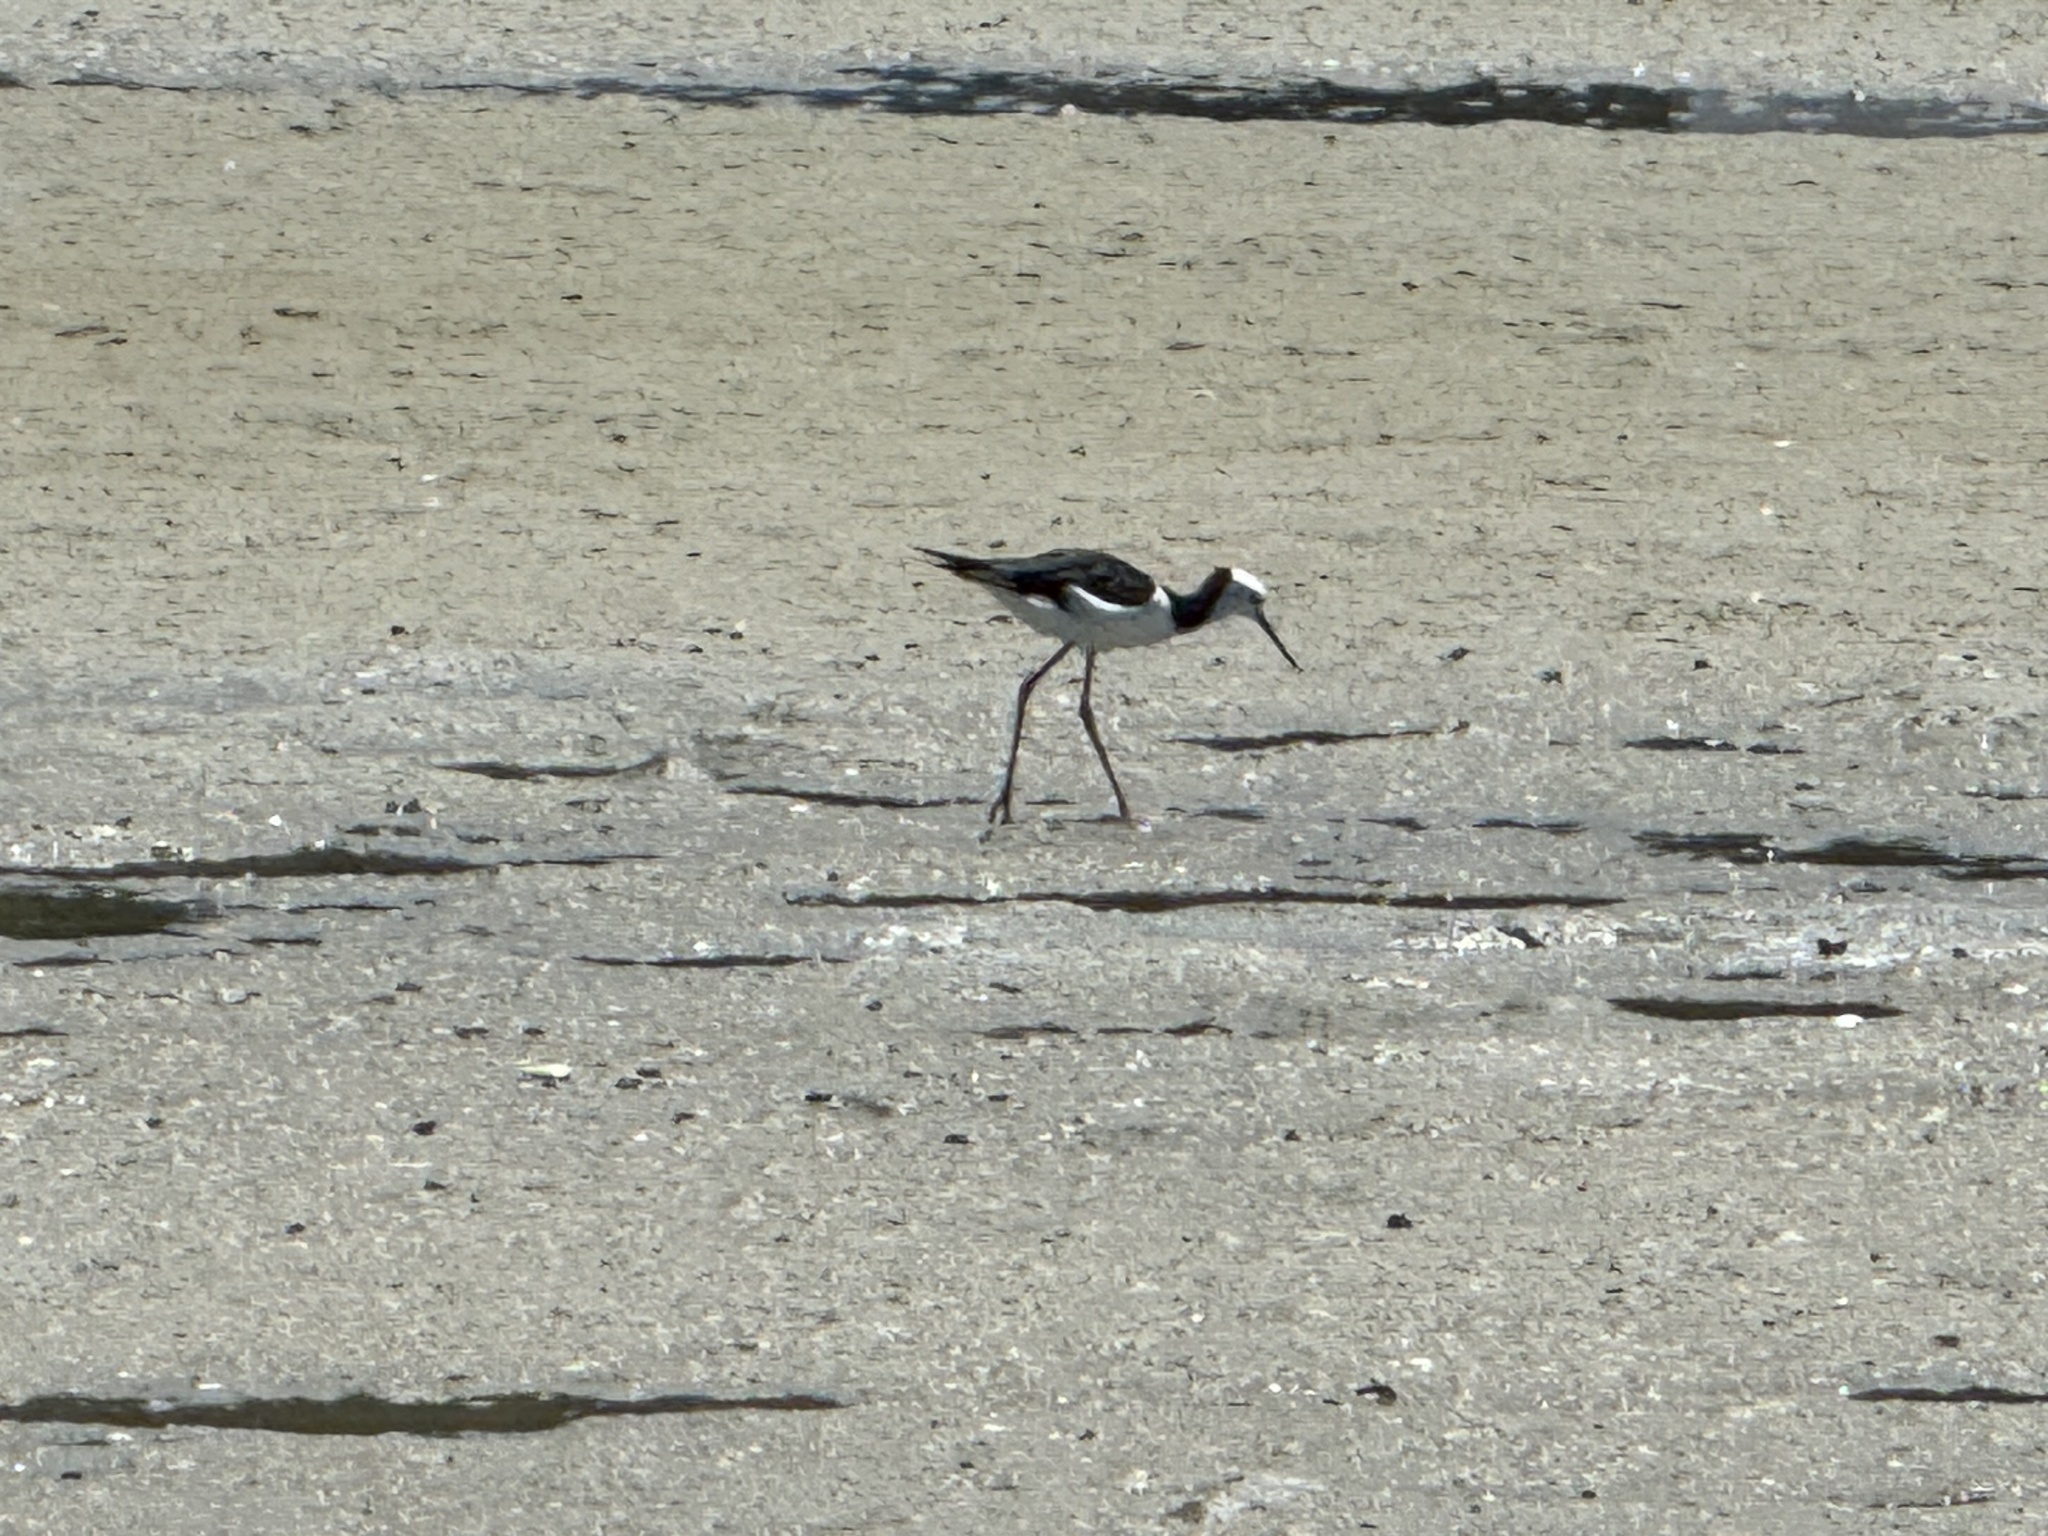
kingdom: Animalia
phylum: Chordata
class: Aves
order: Charadriiformes
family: Recurvirostridae
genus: Himantopus
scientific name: Himantopus
